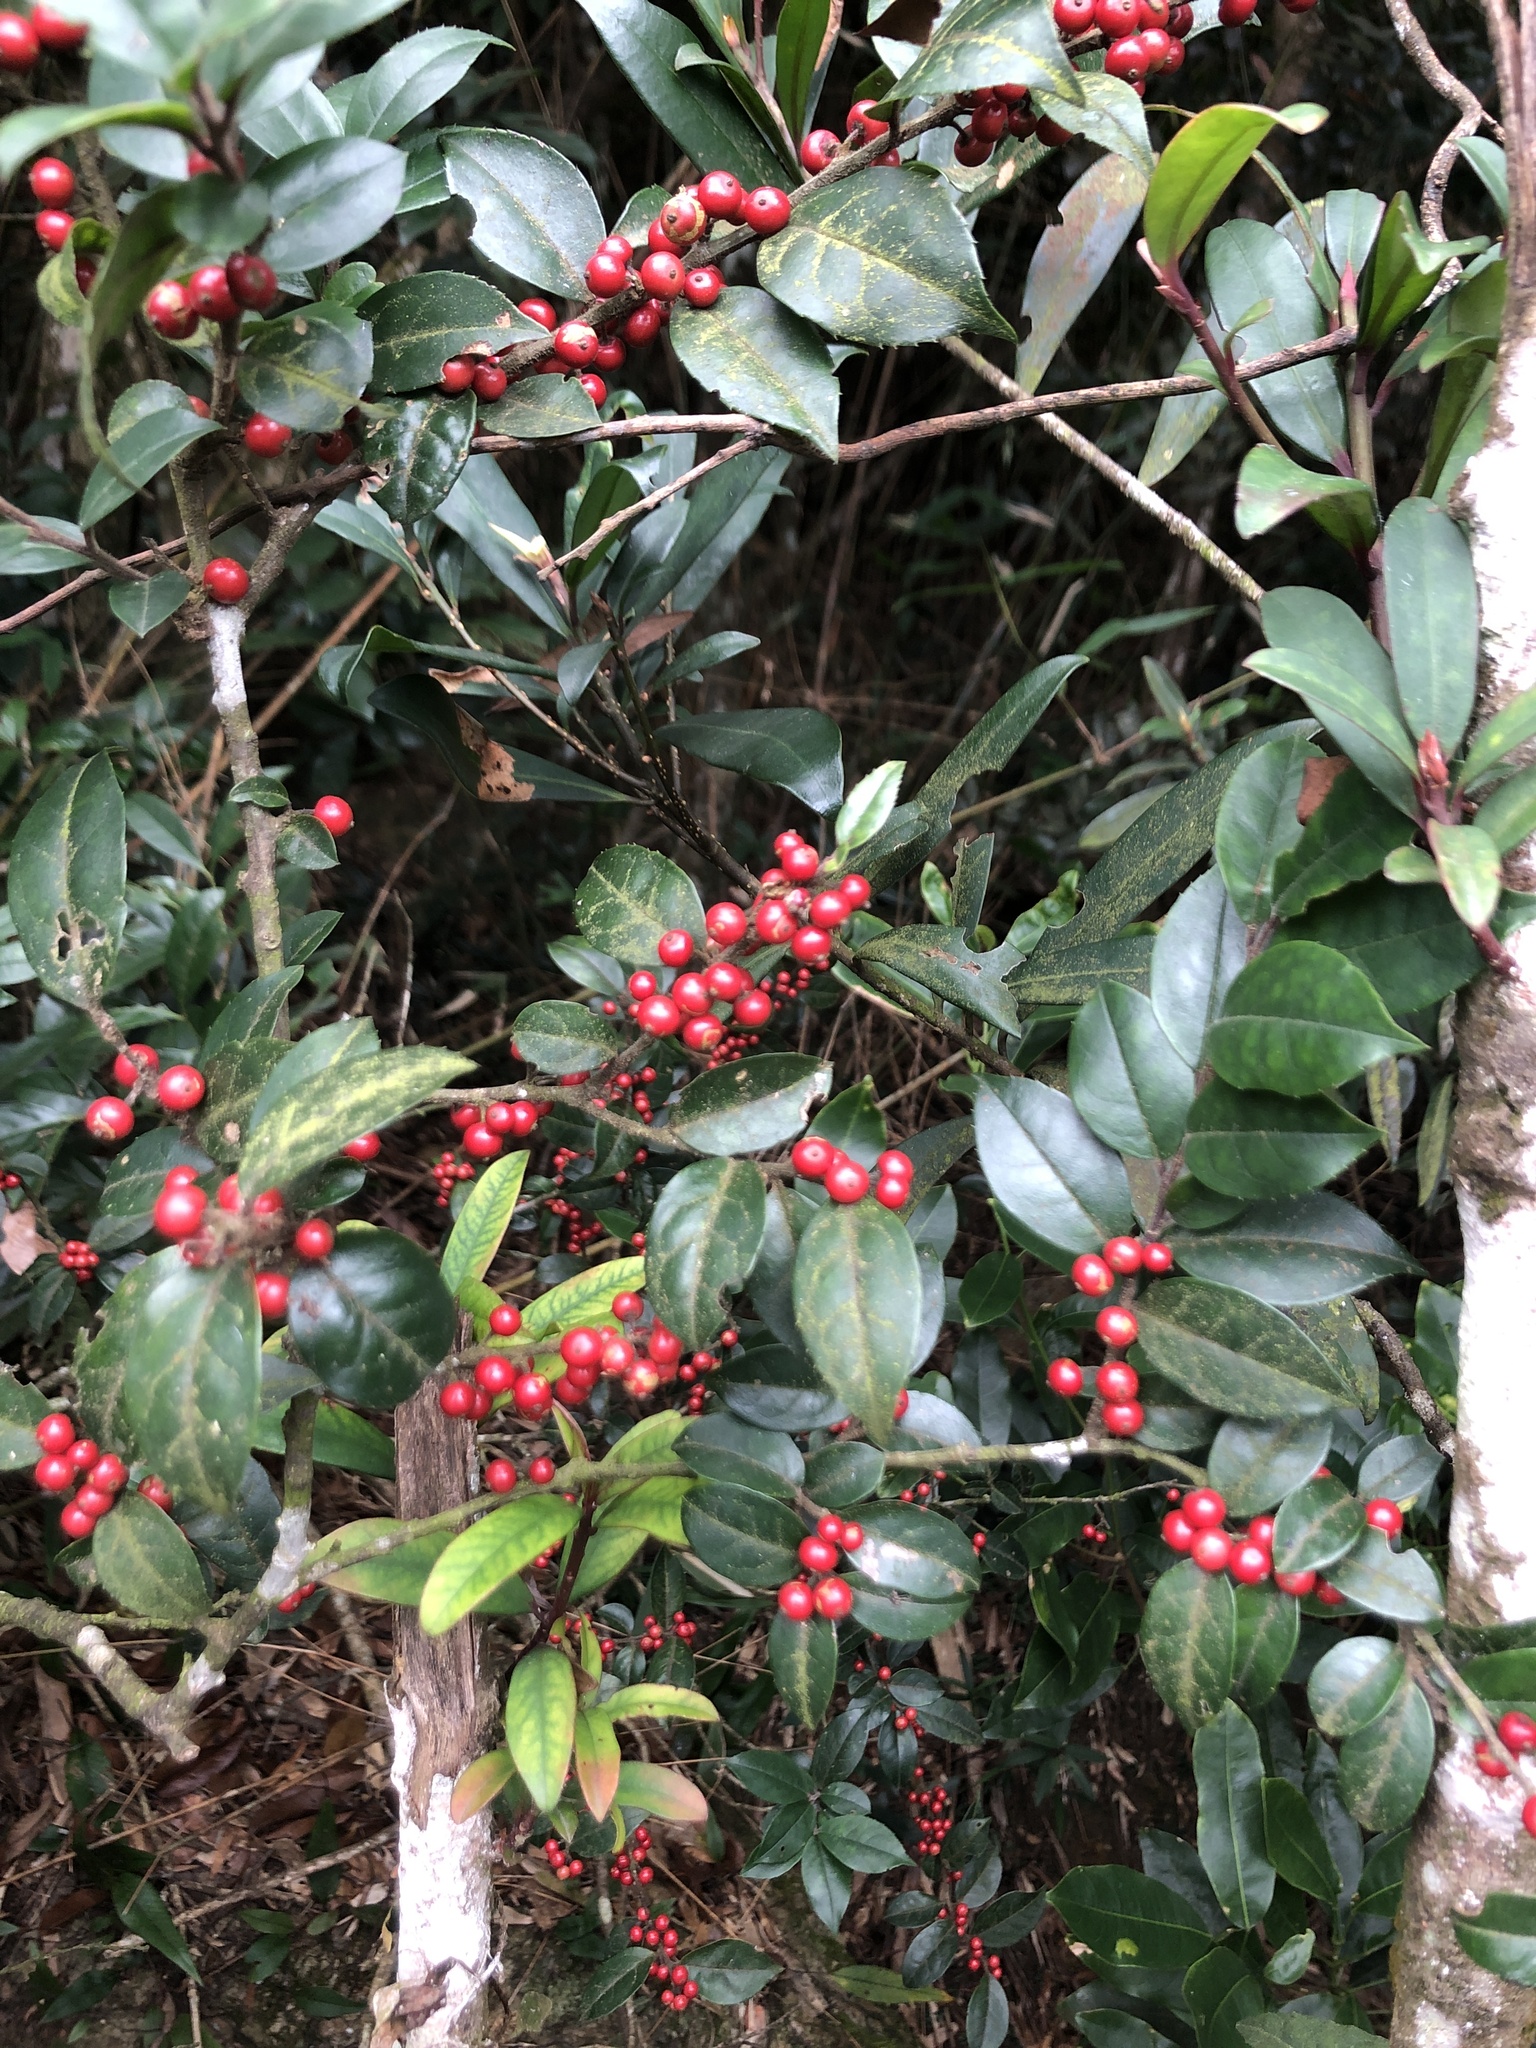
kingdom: Plantae
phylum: Tracheophyta
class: Magnoliopsida
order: Aquifoliales
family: Aquifoliaceae
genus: Ilex
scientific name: Ilex pubescens
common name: Pubescent holly
